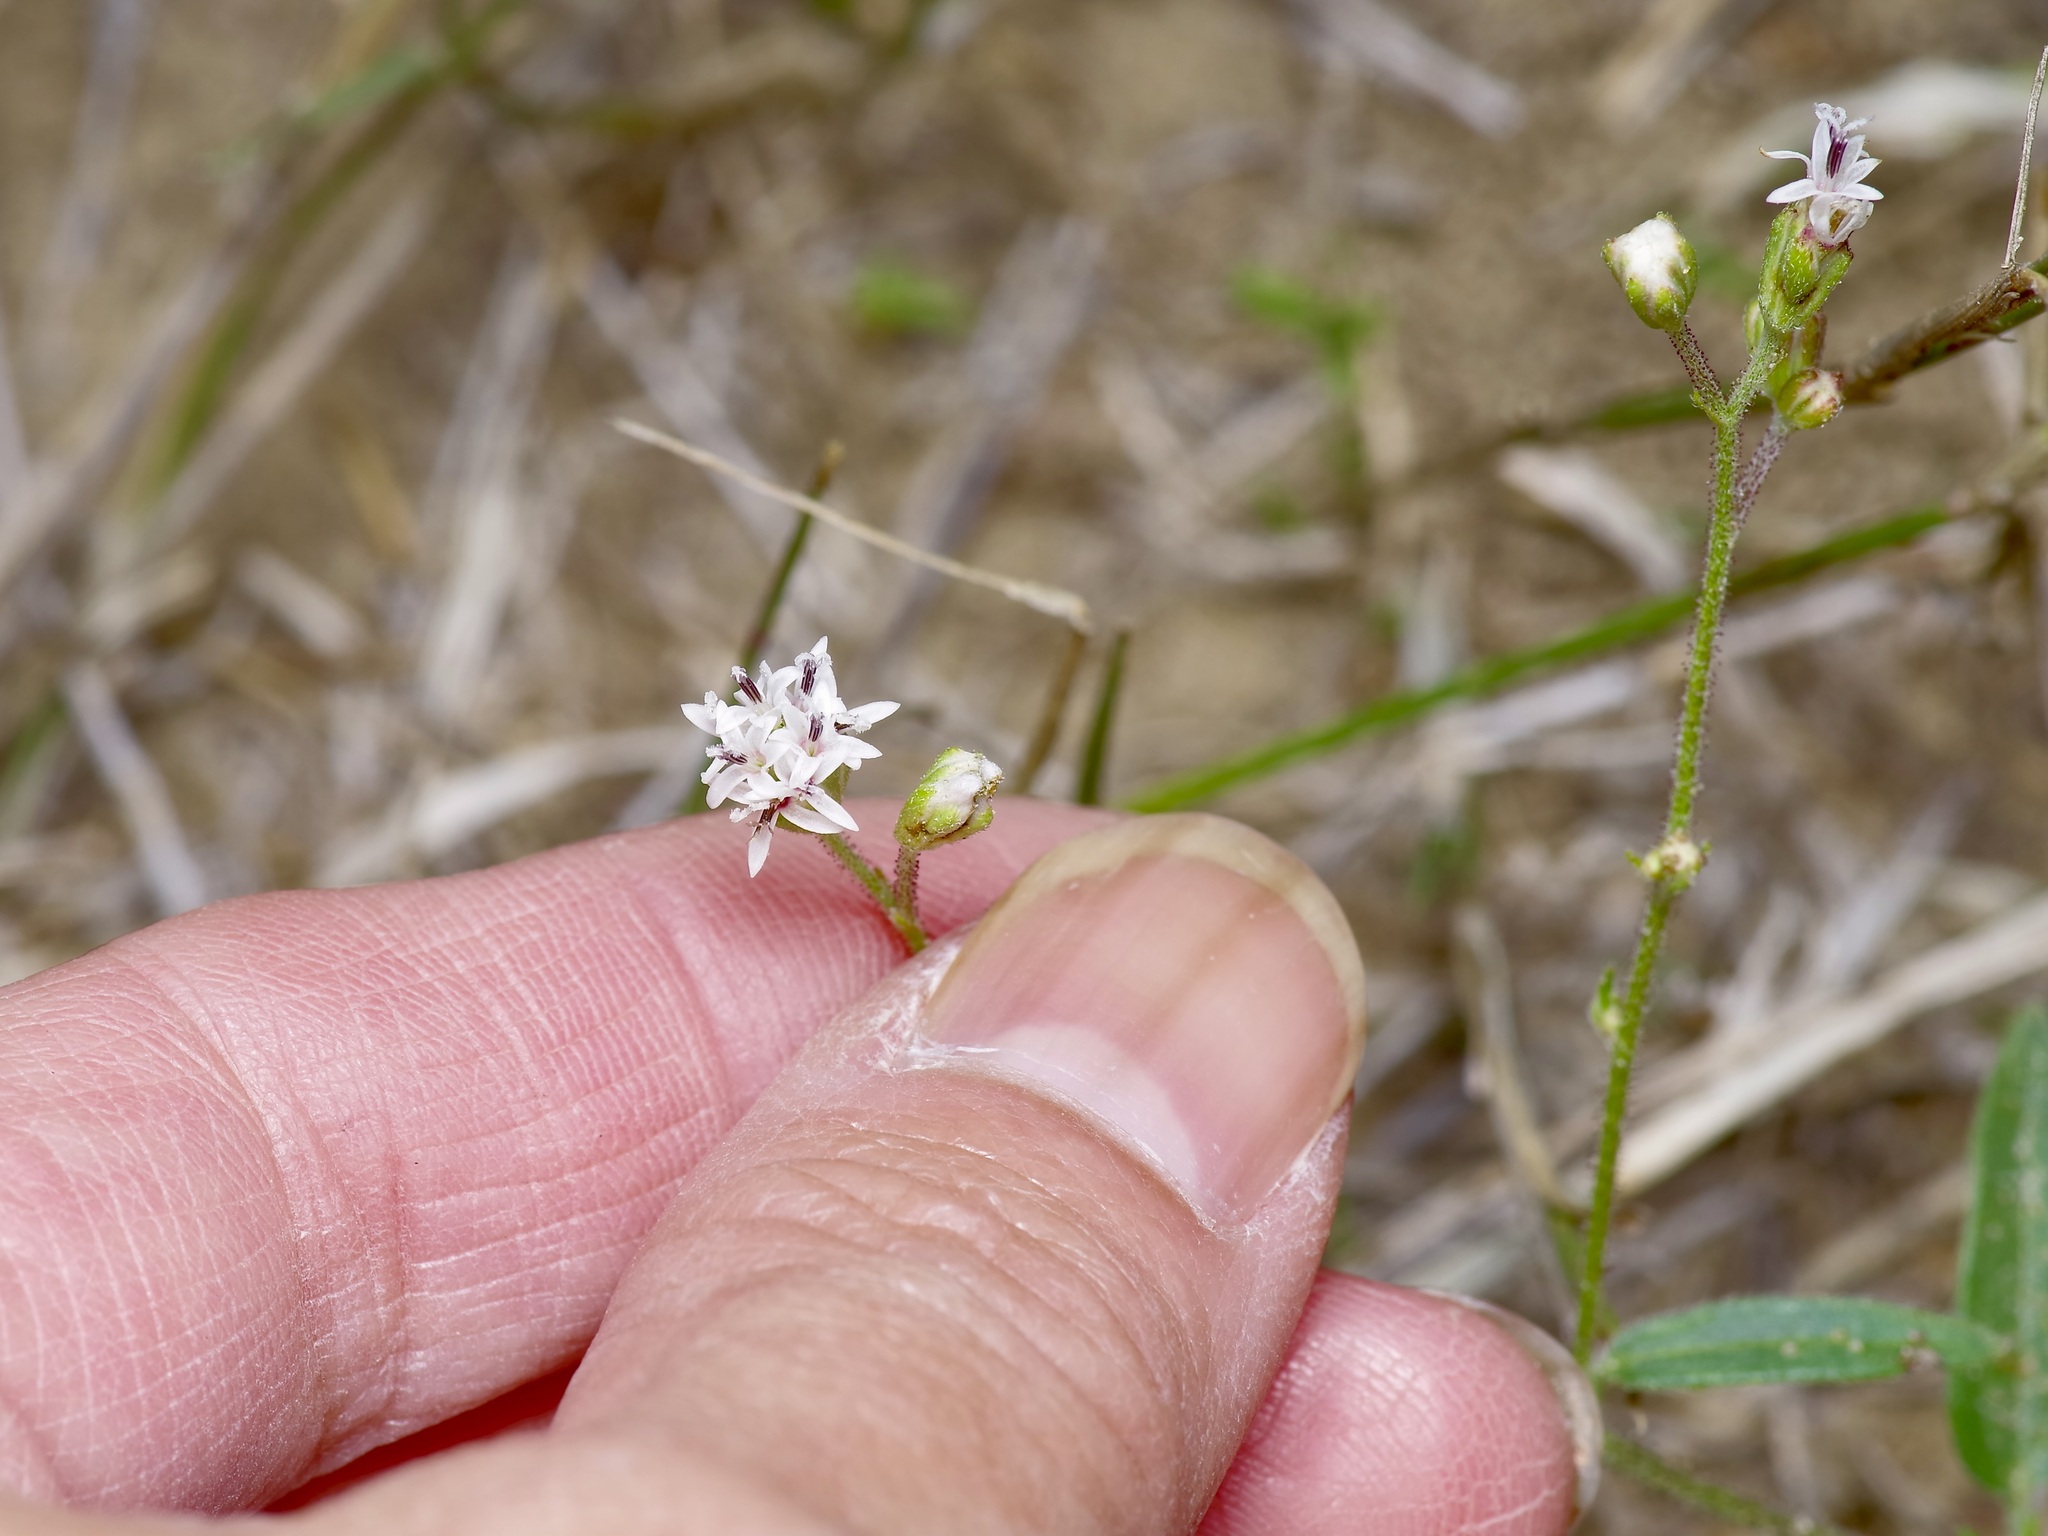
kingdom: Plantae
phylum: Tracheophyta
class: Magnoliopsida
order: Asterales
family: Asteraceae
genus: Florestina
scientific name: Florestina tripteris
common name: Sticky florestina
